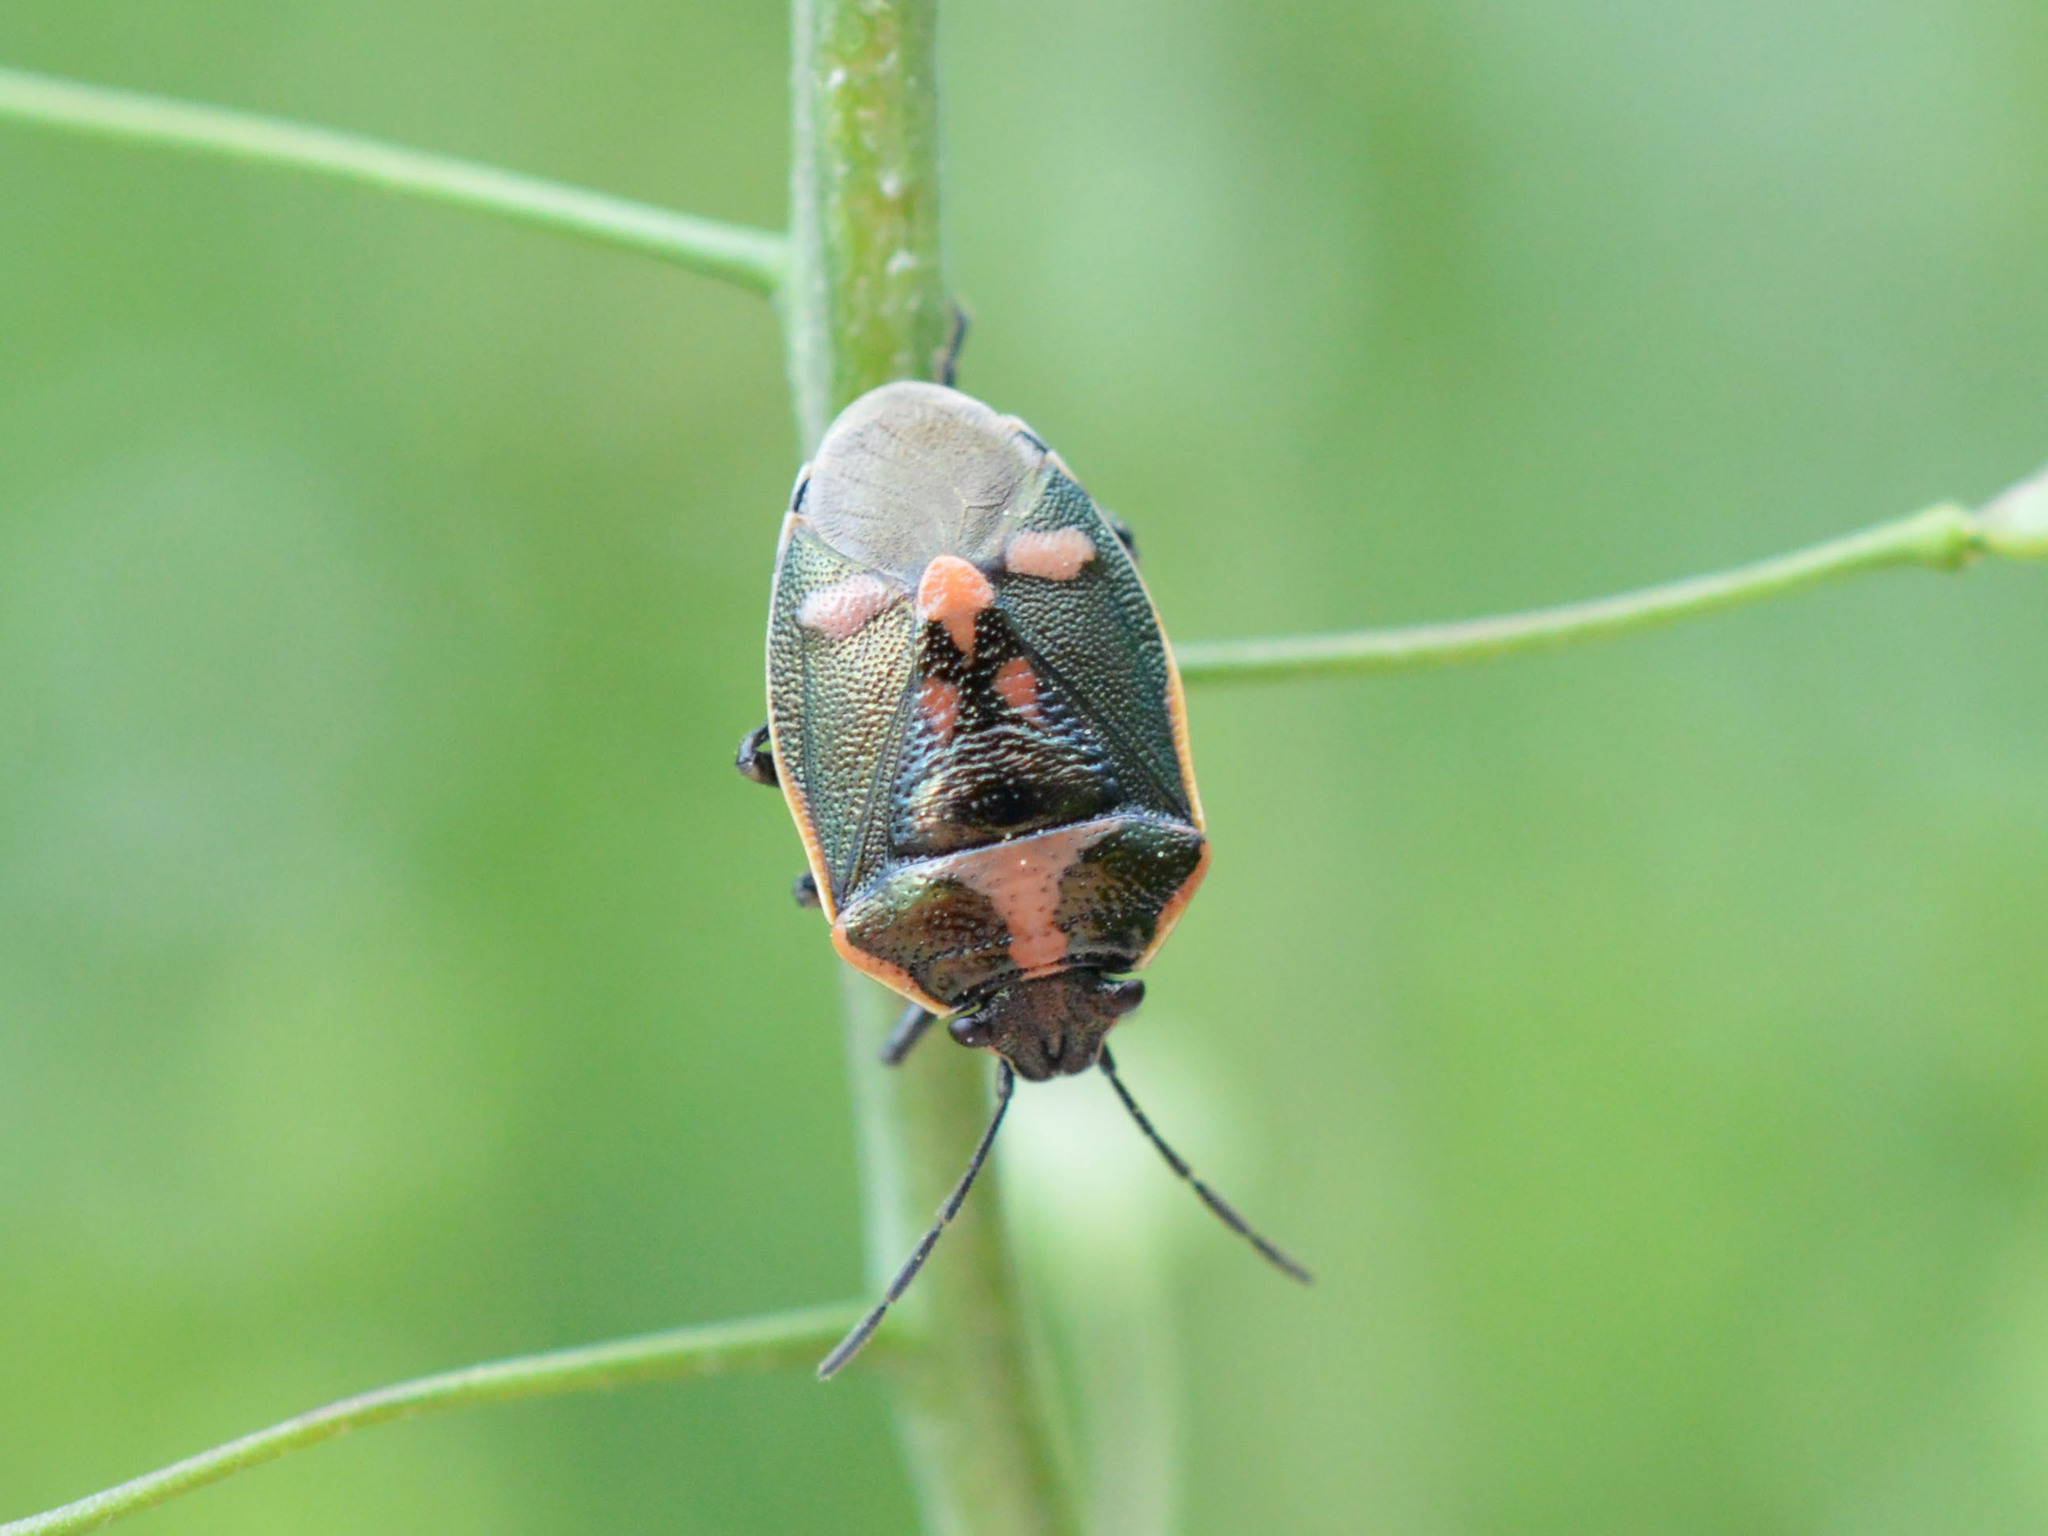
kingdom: Animalia
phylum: Arthropoda
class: Insecta
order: Hemiptera
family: Pentatomidae
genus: Eurydema
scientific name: Eurydema oleracea
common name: Cabbage bug
